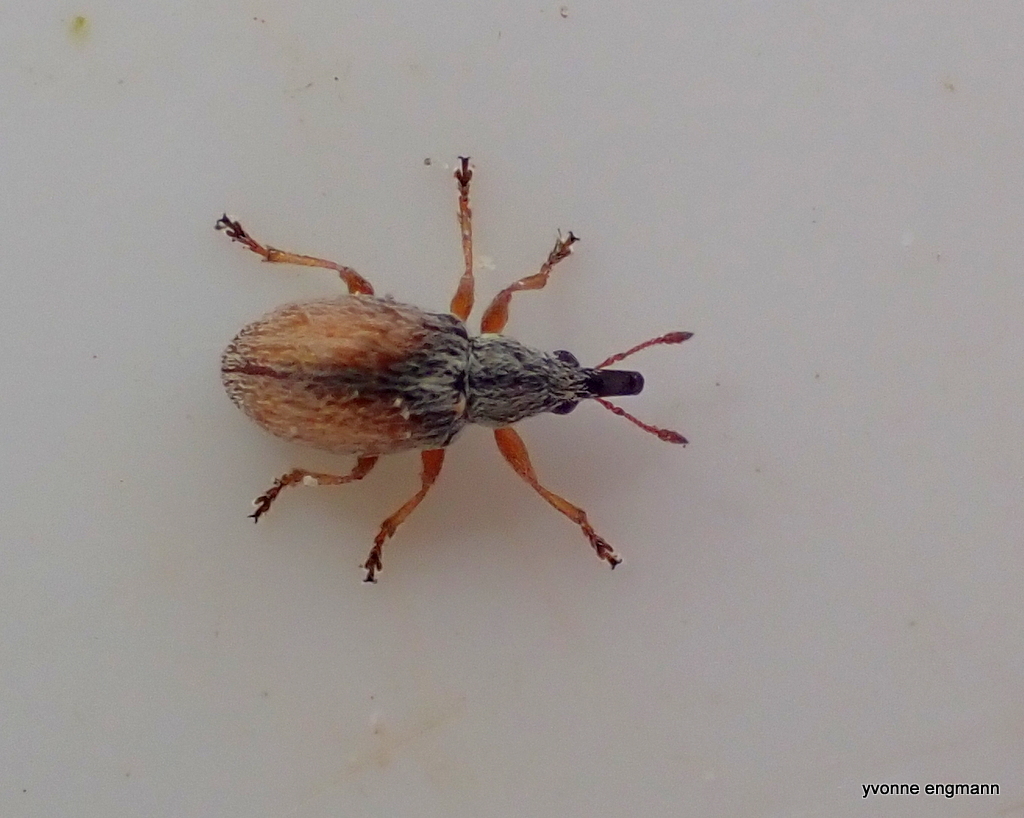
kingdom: Animalia
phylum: Arthropoda
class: Insecta
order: Coleoptera
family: Apionidae
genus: Malvapion
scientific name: Malvapion malvae
